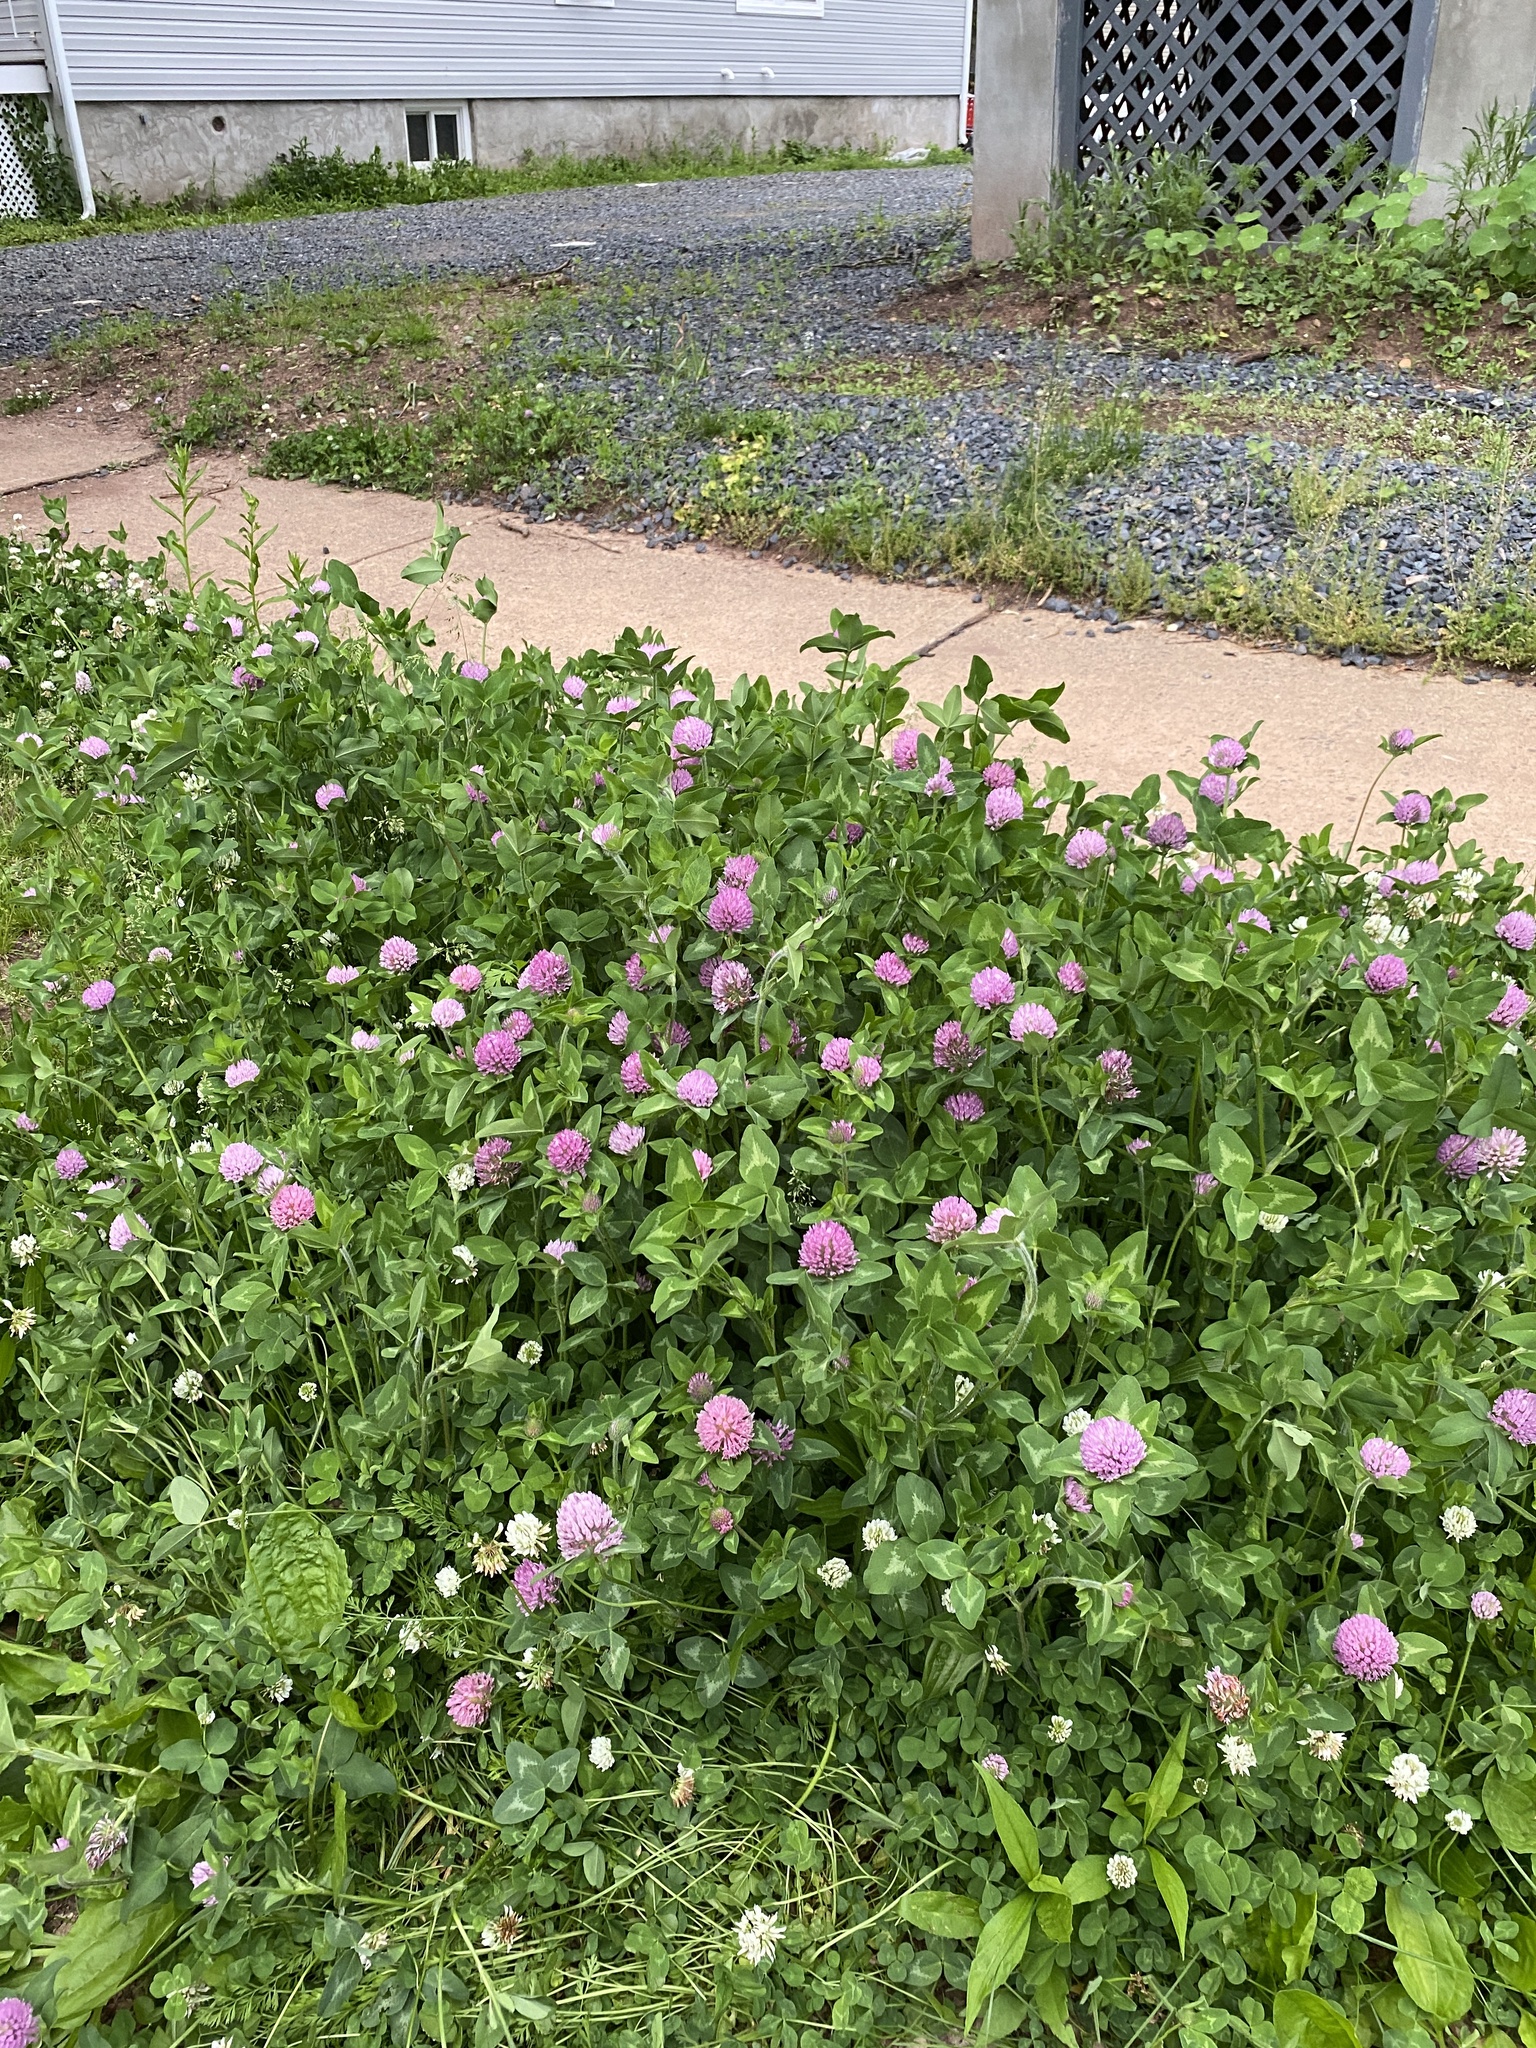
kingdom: Plantae
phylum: Tracheophyta
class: Magnoliopsida
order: Fabales
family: Fabaceae
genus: Trifolium
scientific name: Trifolium pratense
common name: Red clover
